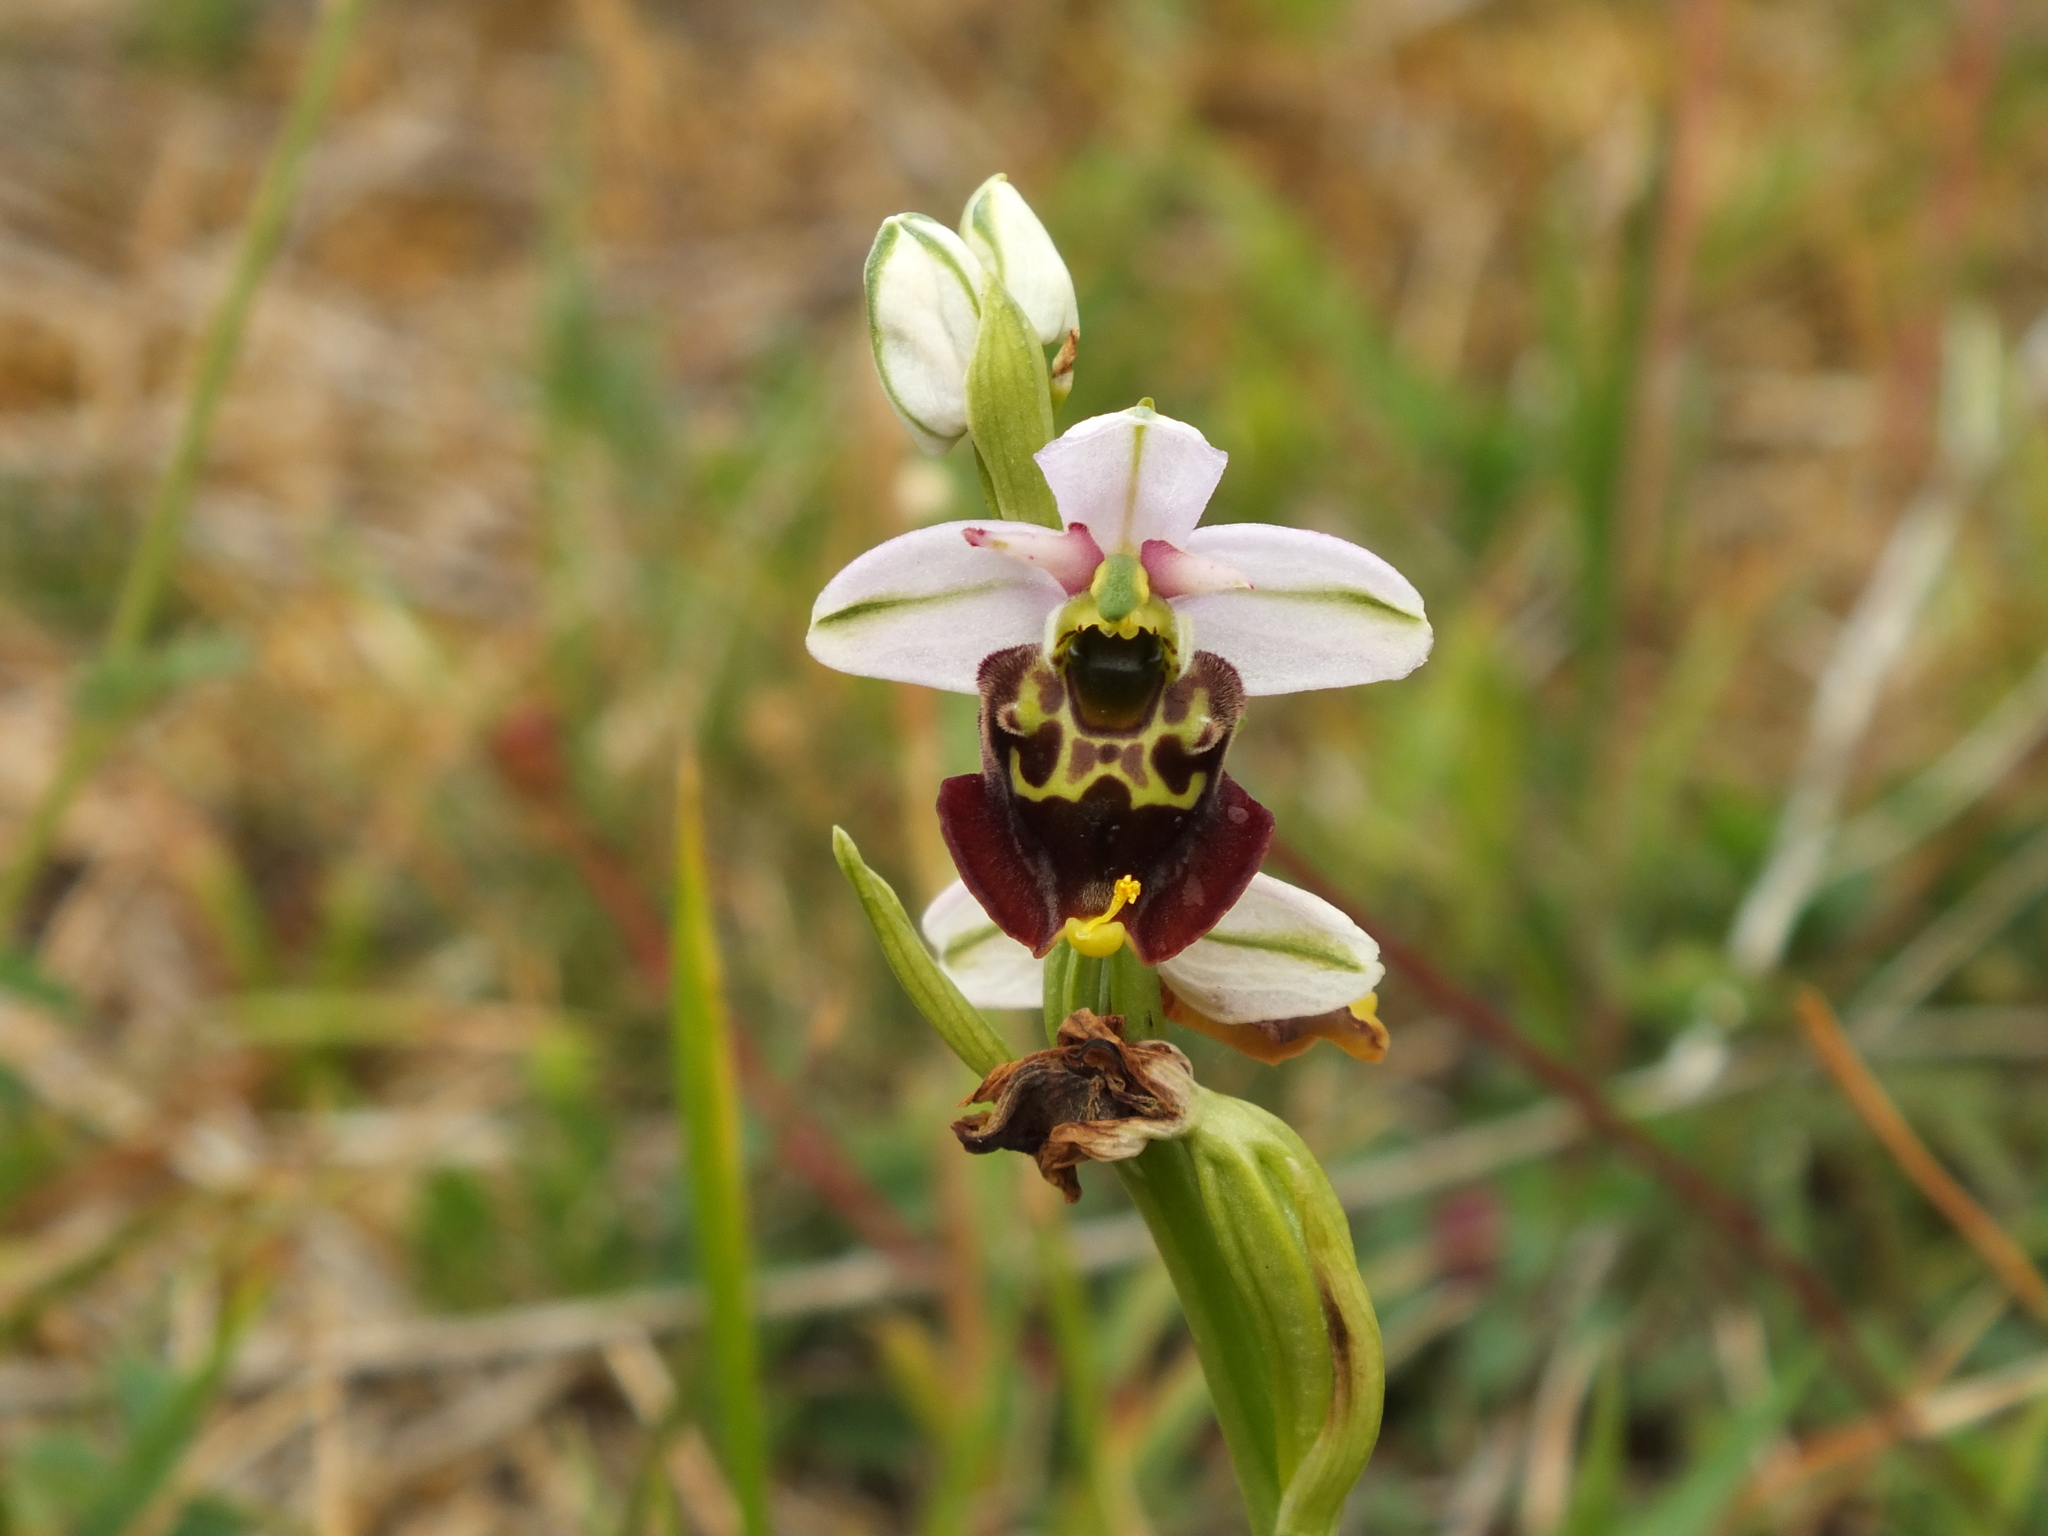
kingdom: Plantae
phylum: Tracheophyta
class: Liliopsida
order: Asparagales
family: Orchidaceae
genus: Ophrys
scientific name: Ophrys holosericea
